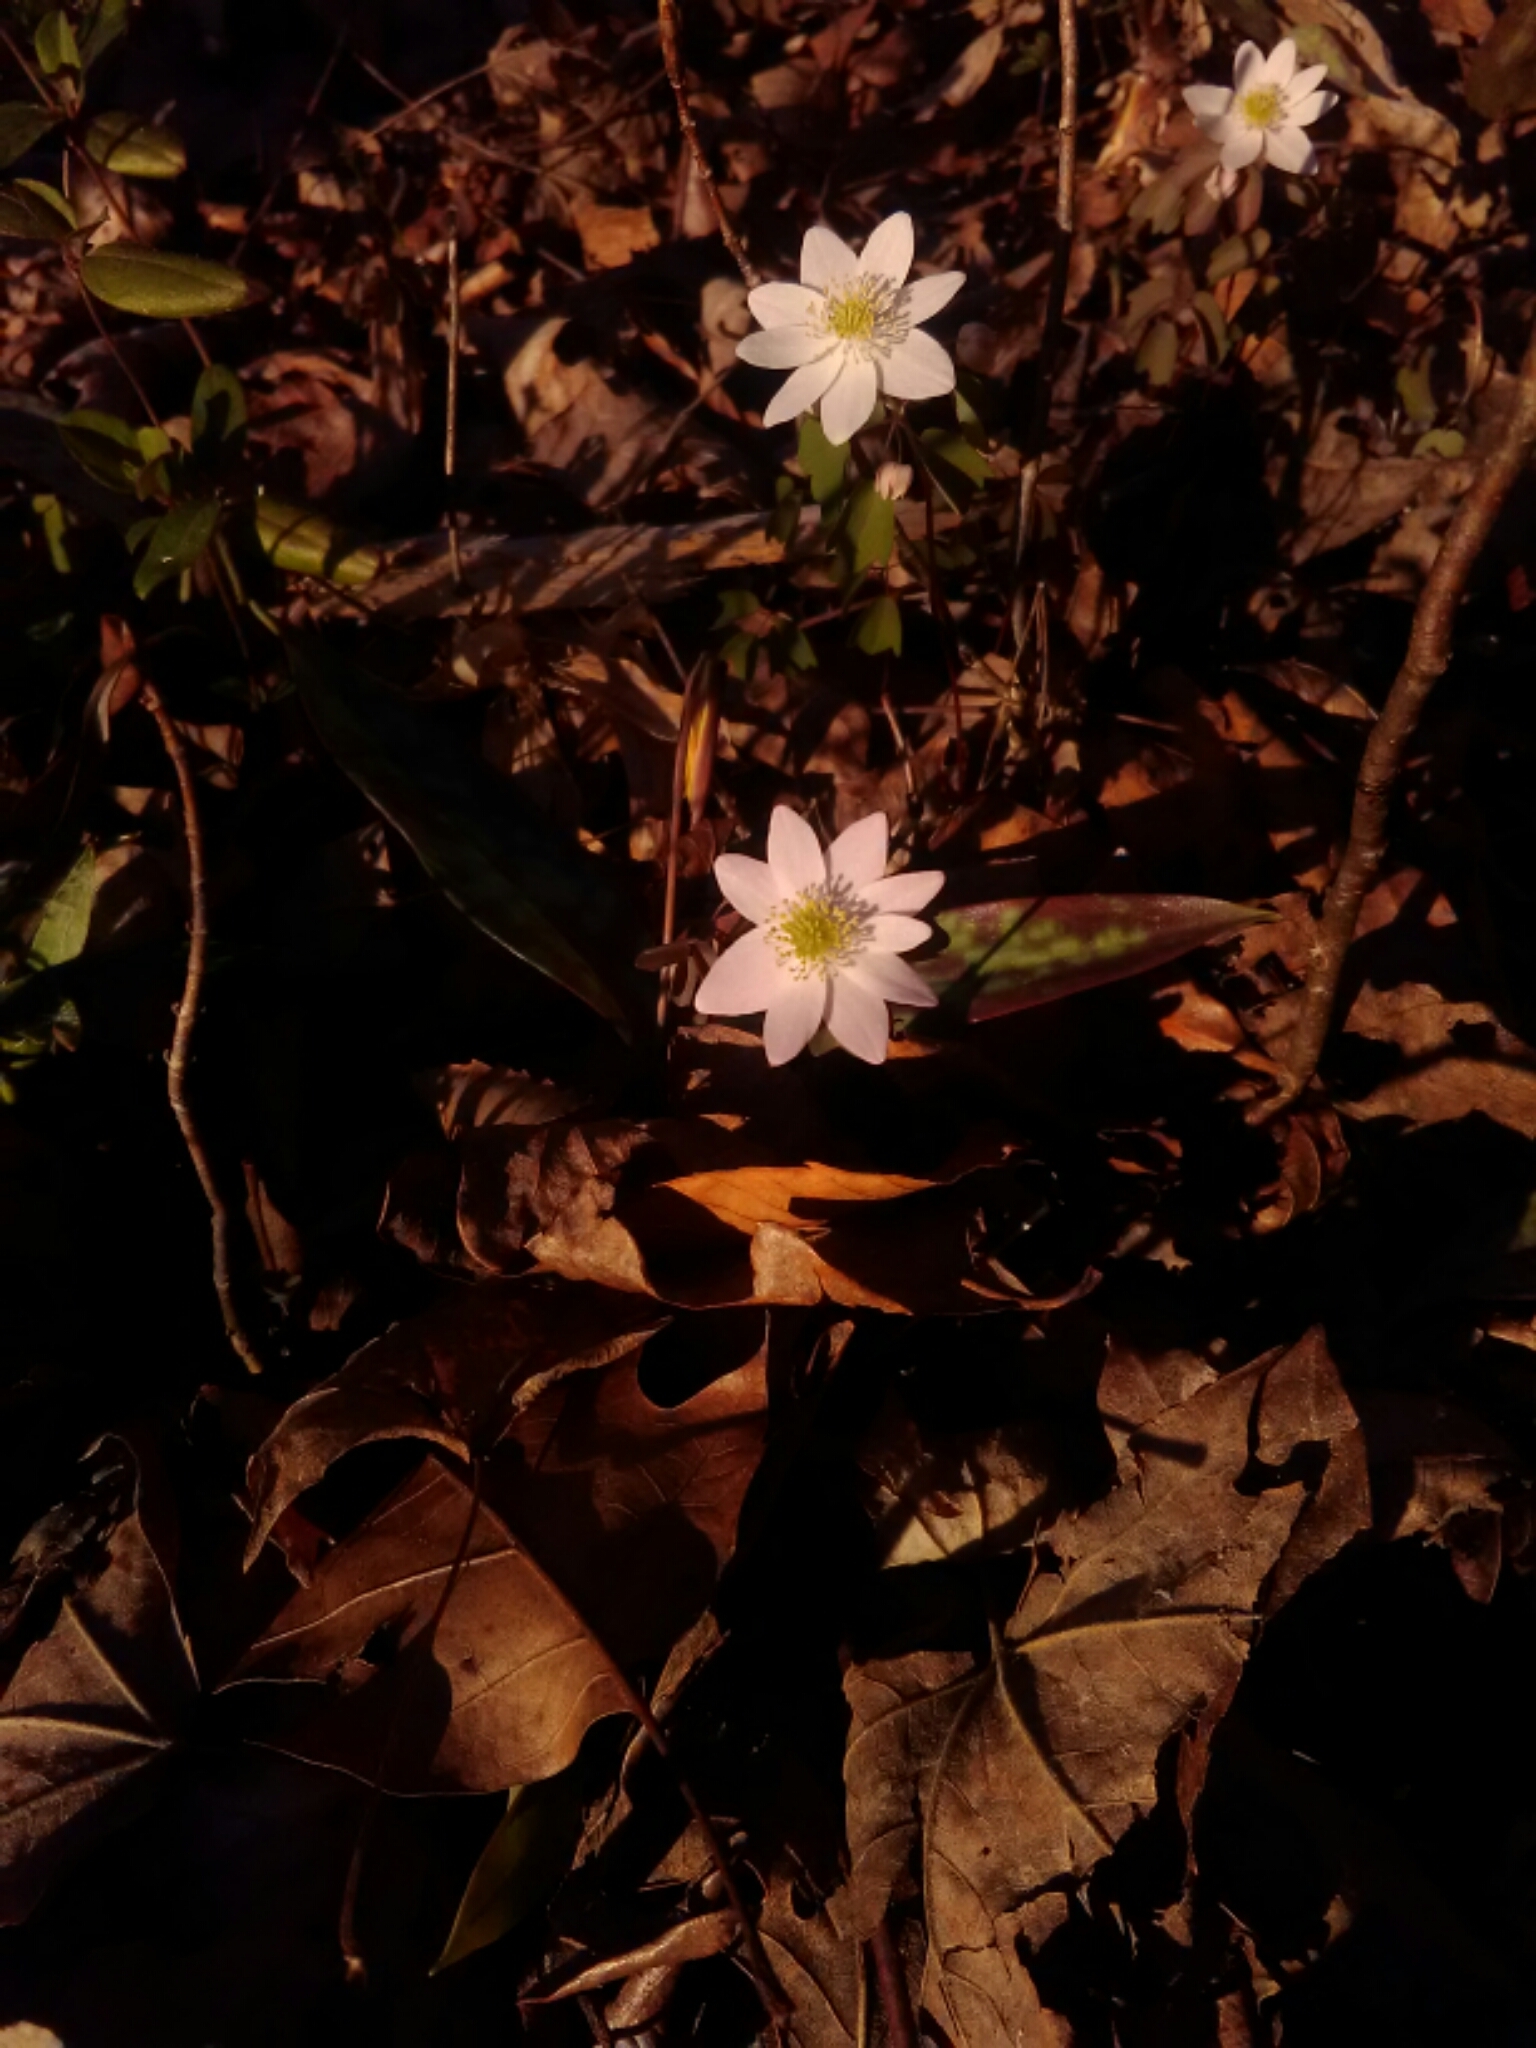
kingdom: Plantae
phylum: Tracheophyta
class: Magnoliopsida
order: Ranunculales
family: Ranunculaceae
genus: Thalictrum
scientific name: Thalictrum thalictroides
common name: Rue-anemone
